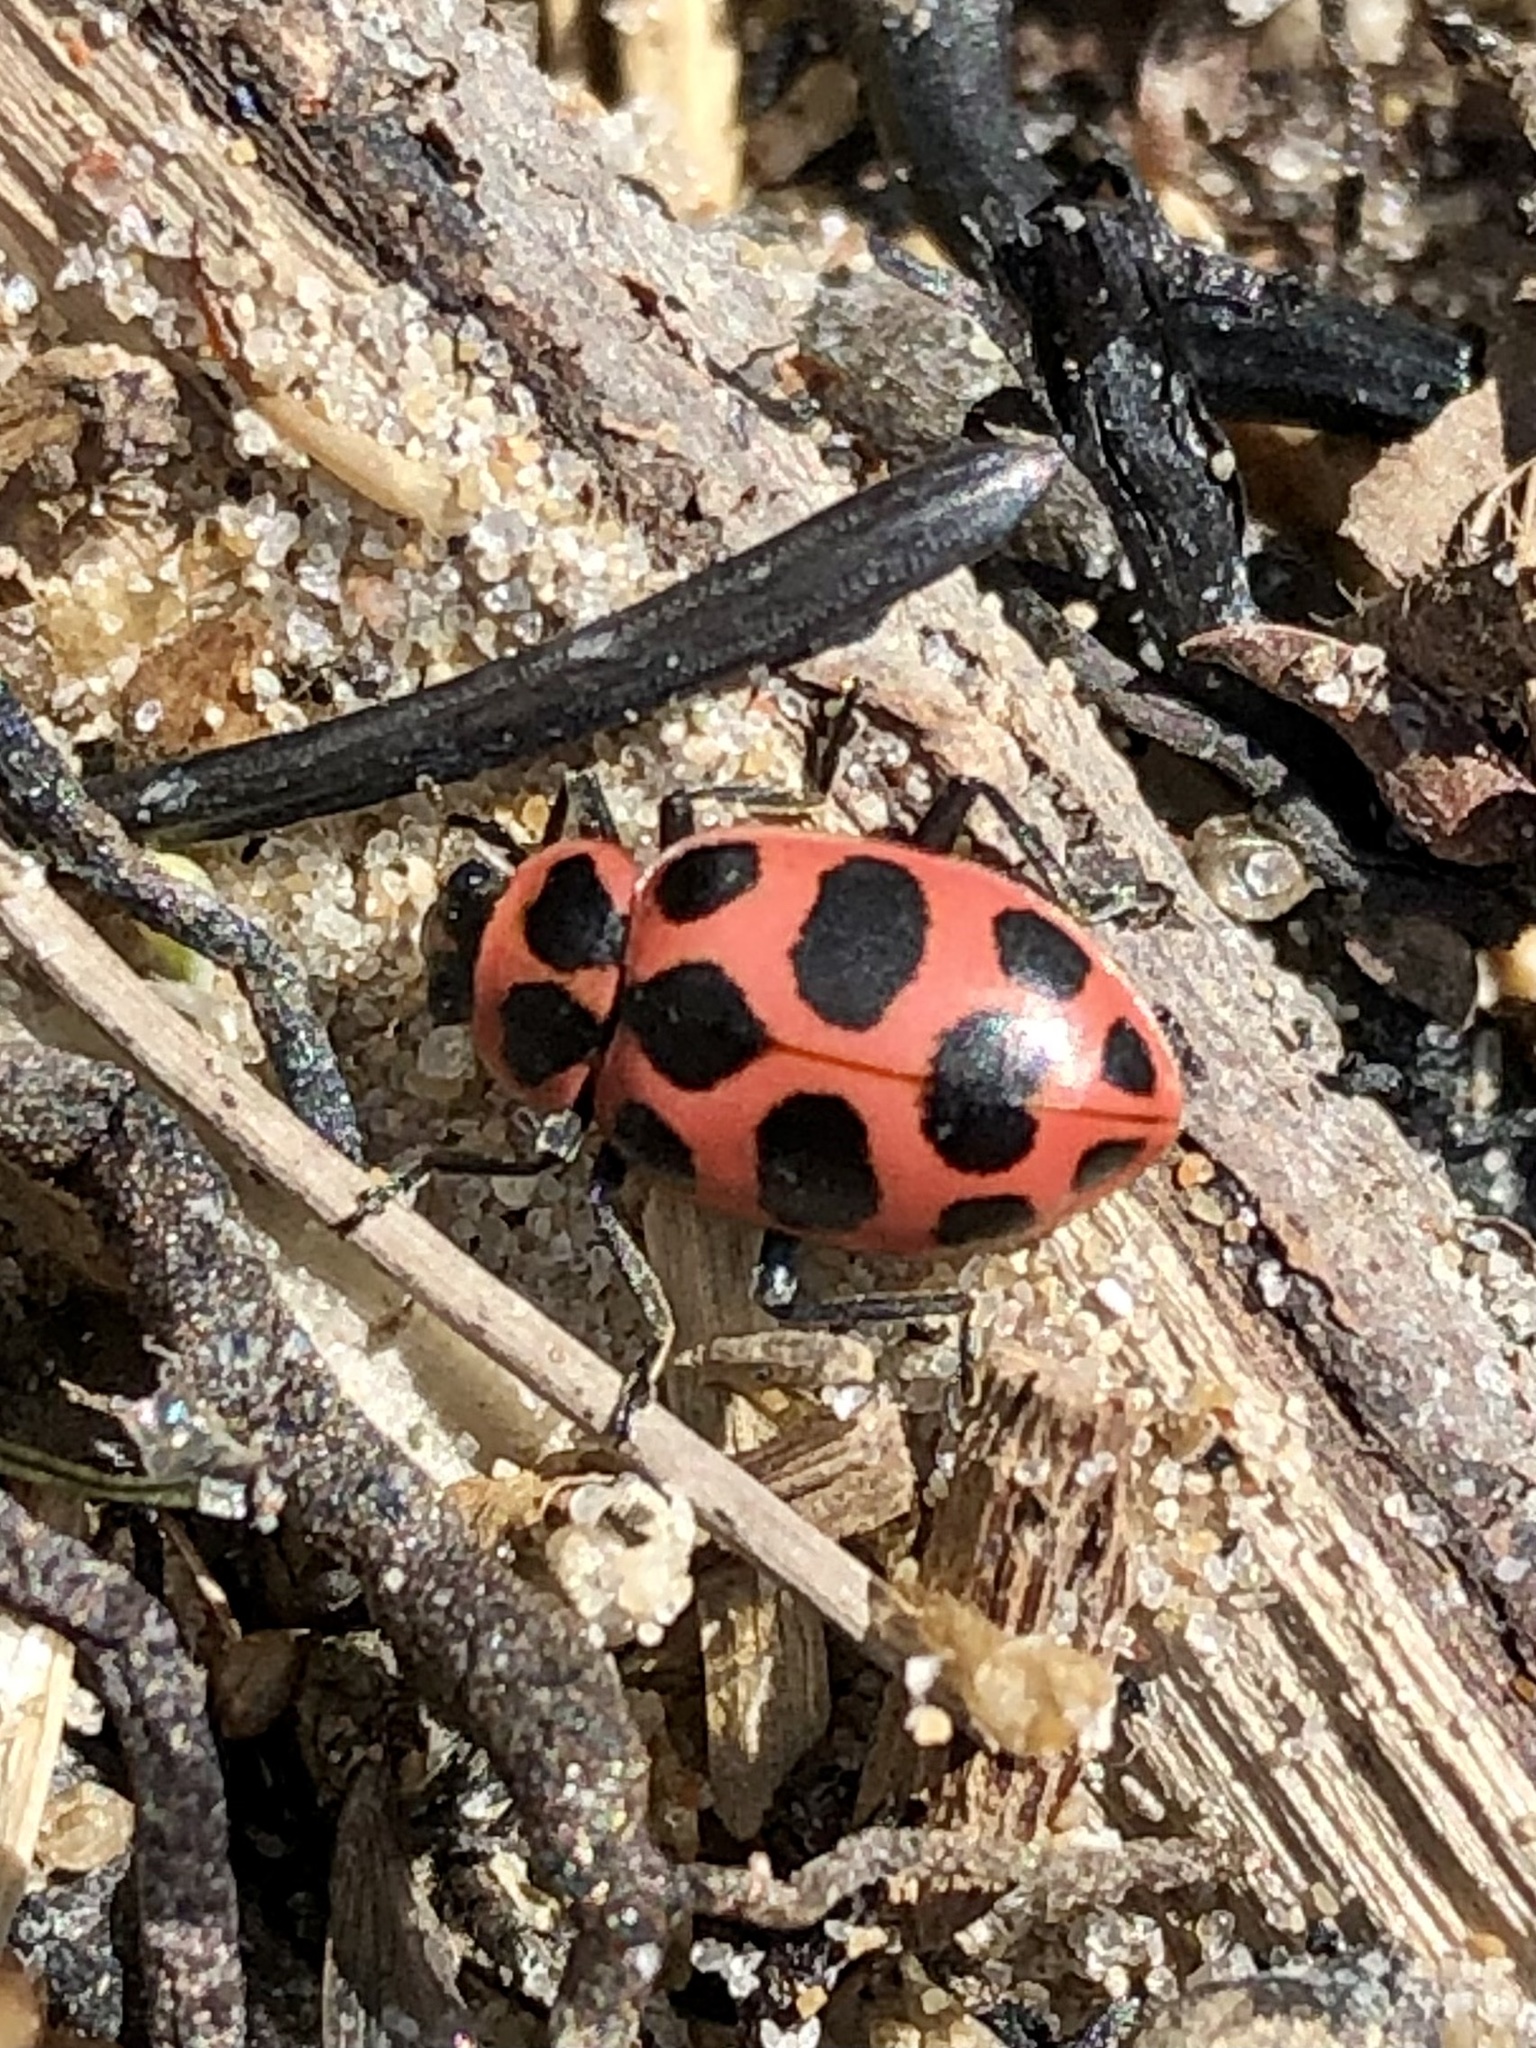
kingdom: Animalia
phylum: Arthropoda
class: Insecta
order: Coleoptera
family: Coccinellidae
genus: Coleomegilla
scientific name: Coleomegilla maculata
